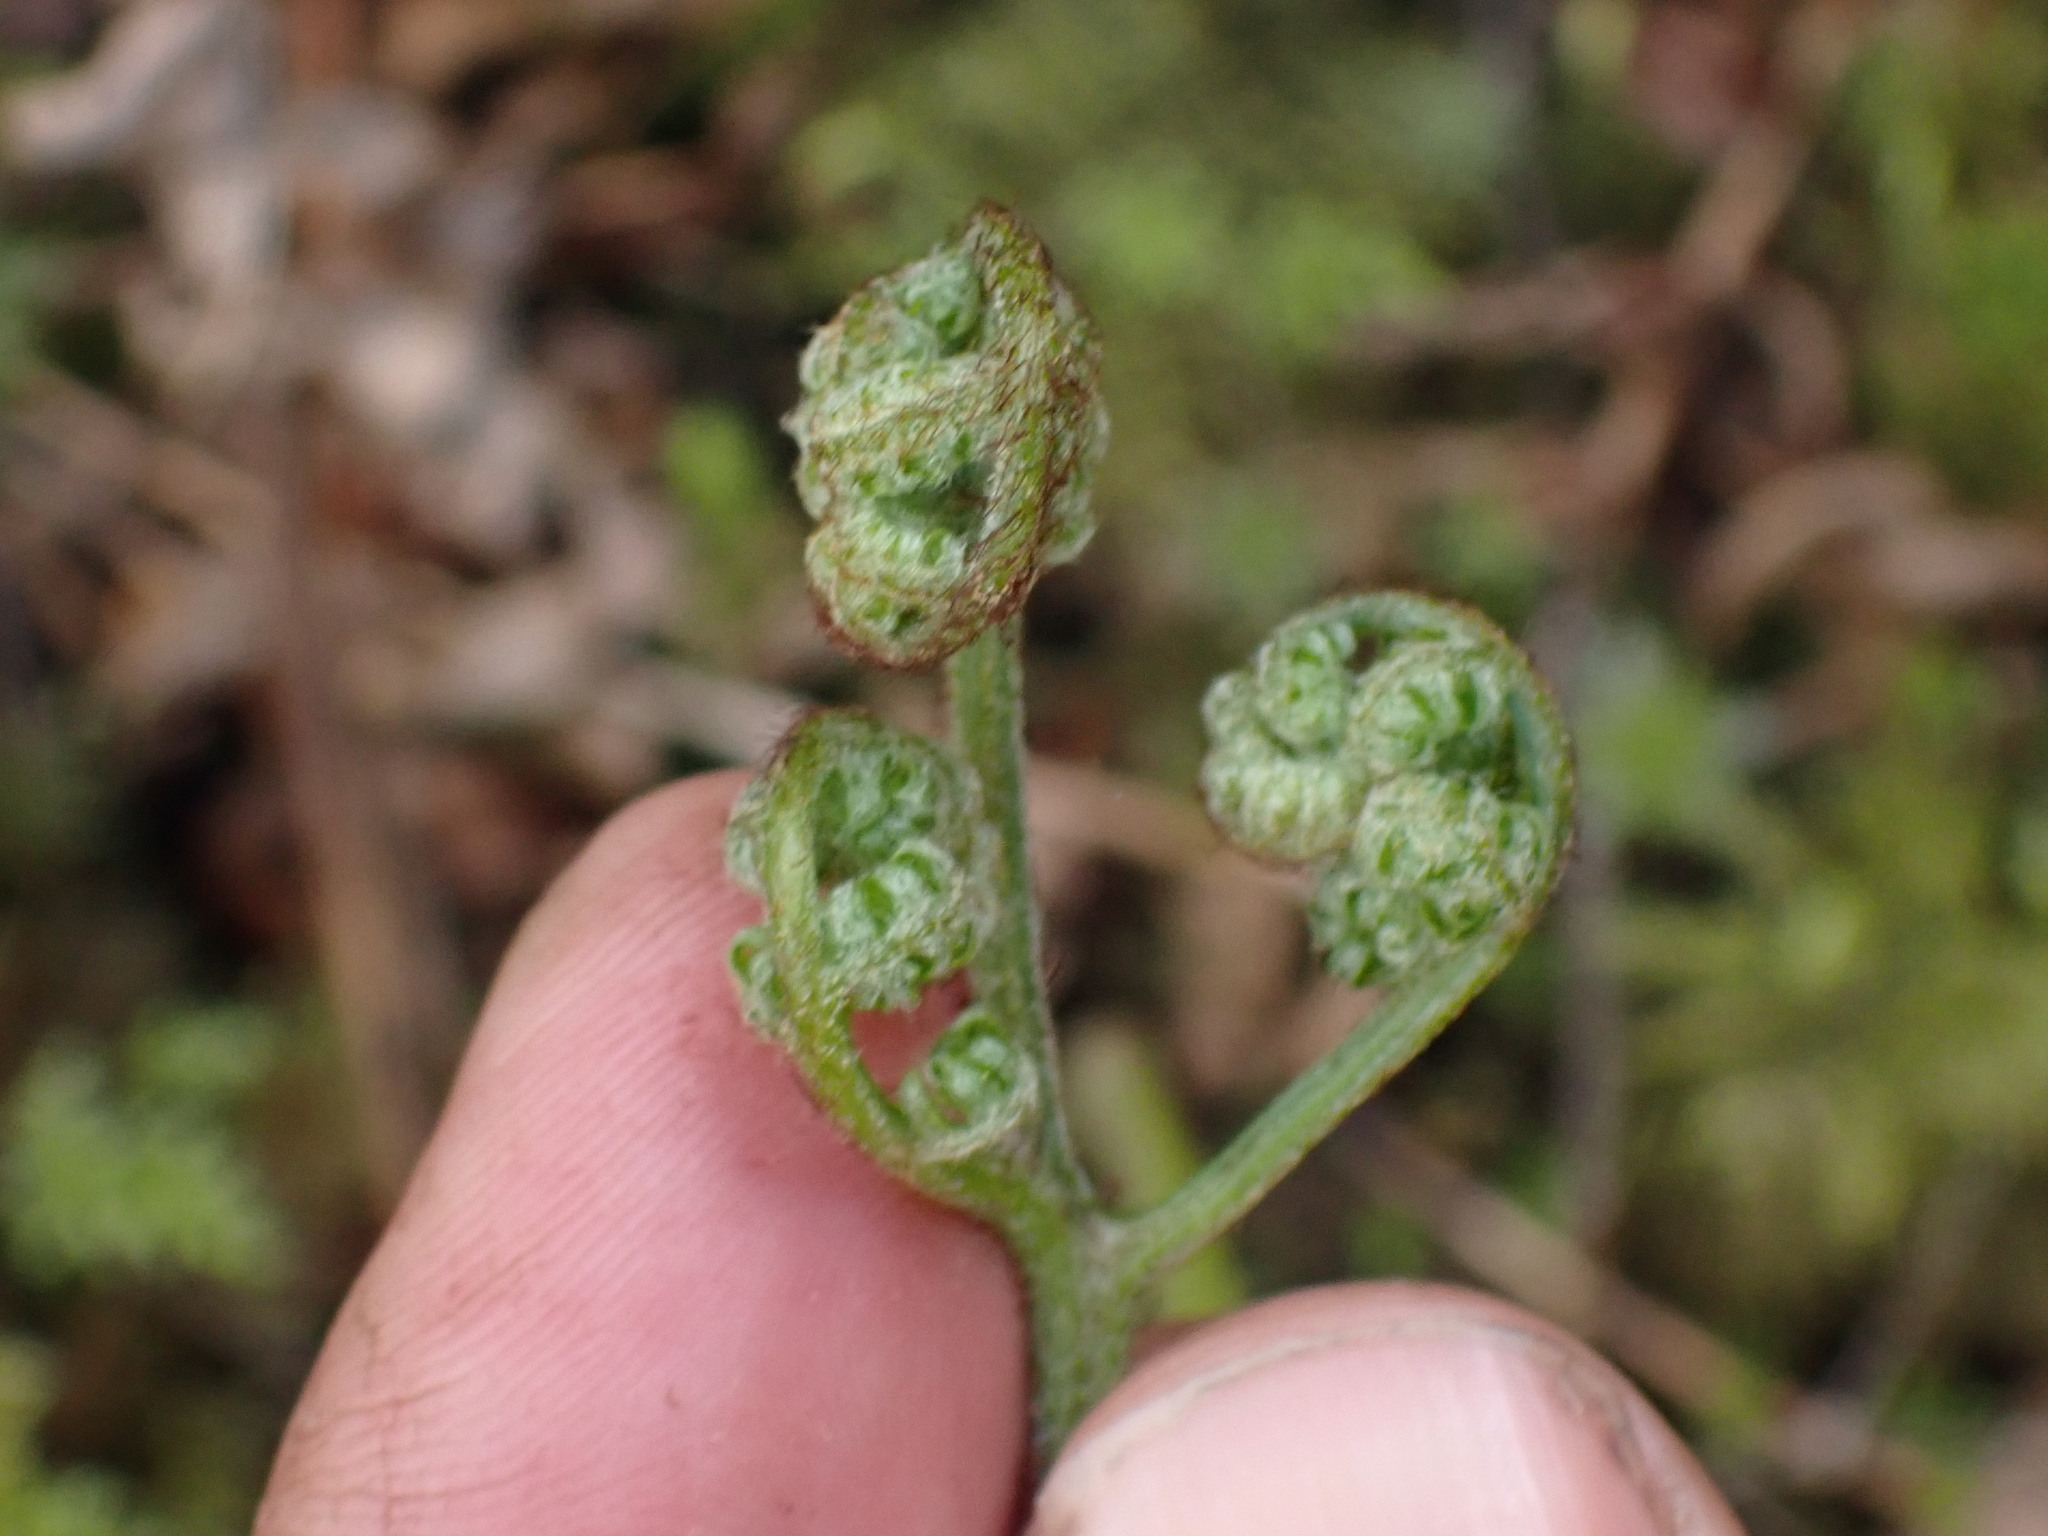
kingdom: Plantae
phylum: Tracheophyta
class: Polypodiopsida
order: Polypodiales
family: Dennstaedtiaceae
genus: Pteridium
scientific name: Pteridium aquilinum
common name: Bracken
